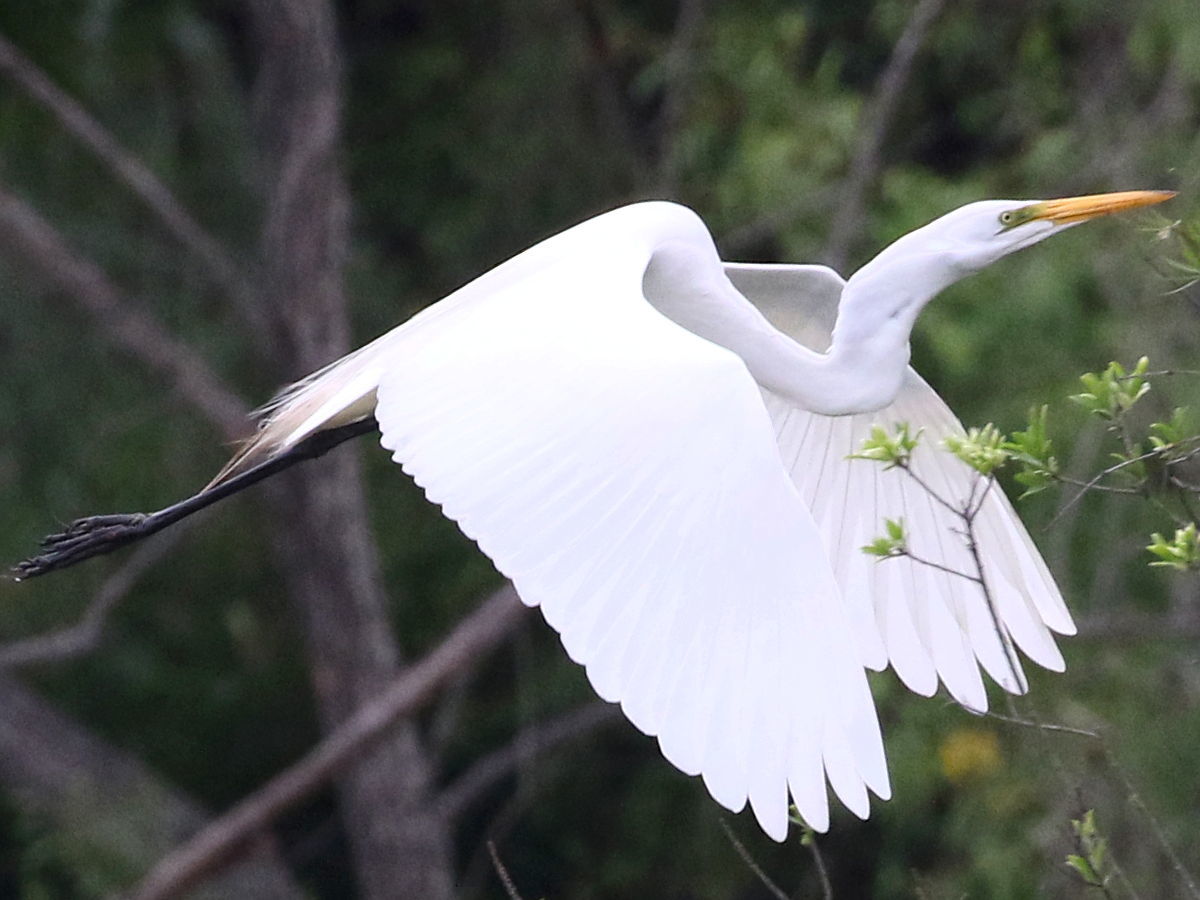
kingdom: Animalia
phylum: Chordata
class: Aves
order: Pelecaniformes
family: Ardeidae
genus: Ardea
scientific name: Ardea alba
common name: Great egret
